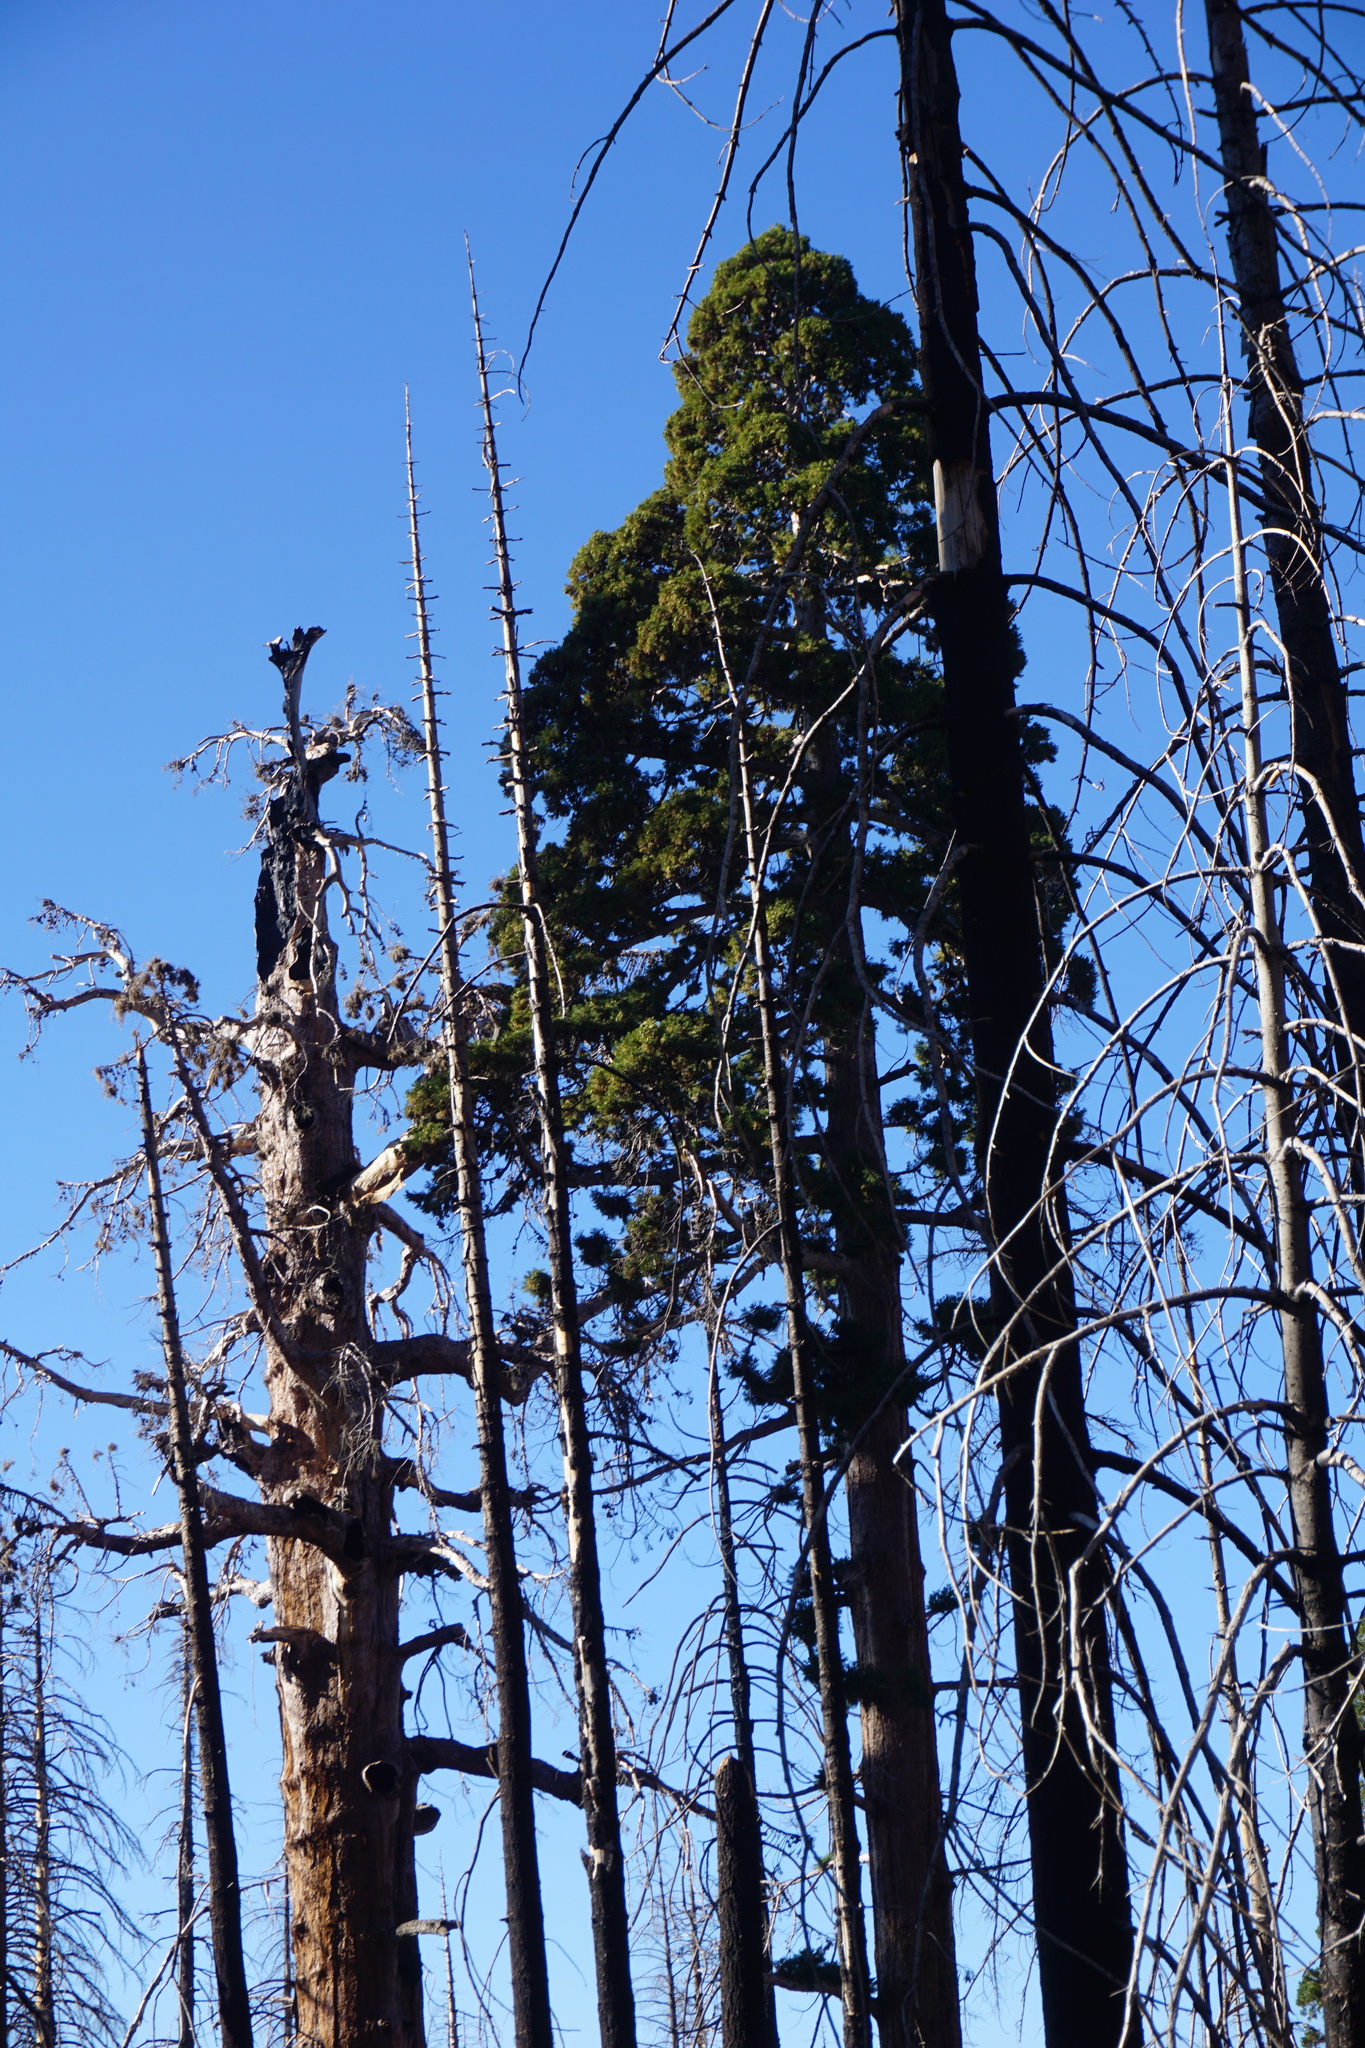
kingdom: Plantae
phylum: Tracheophyta
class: Pinopsida
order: Pinales
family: Cupressaceae
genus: Sequoiadendron
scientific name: Sequoiadendron giganteum
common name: Wellingtonia
